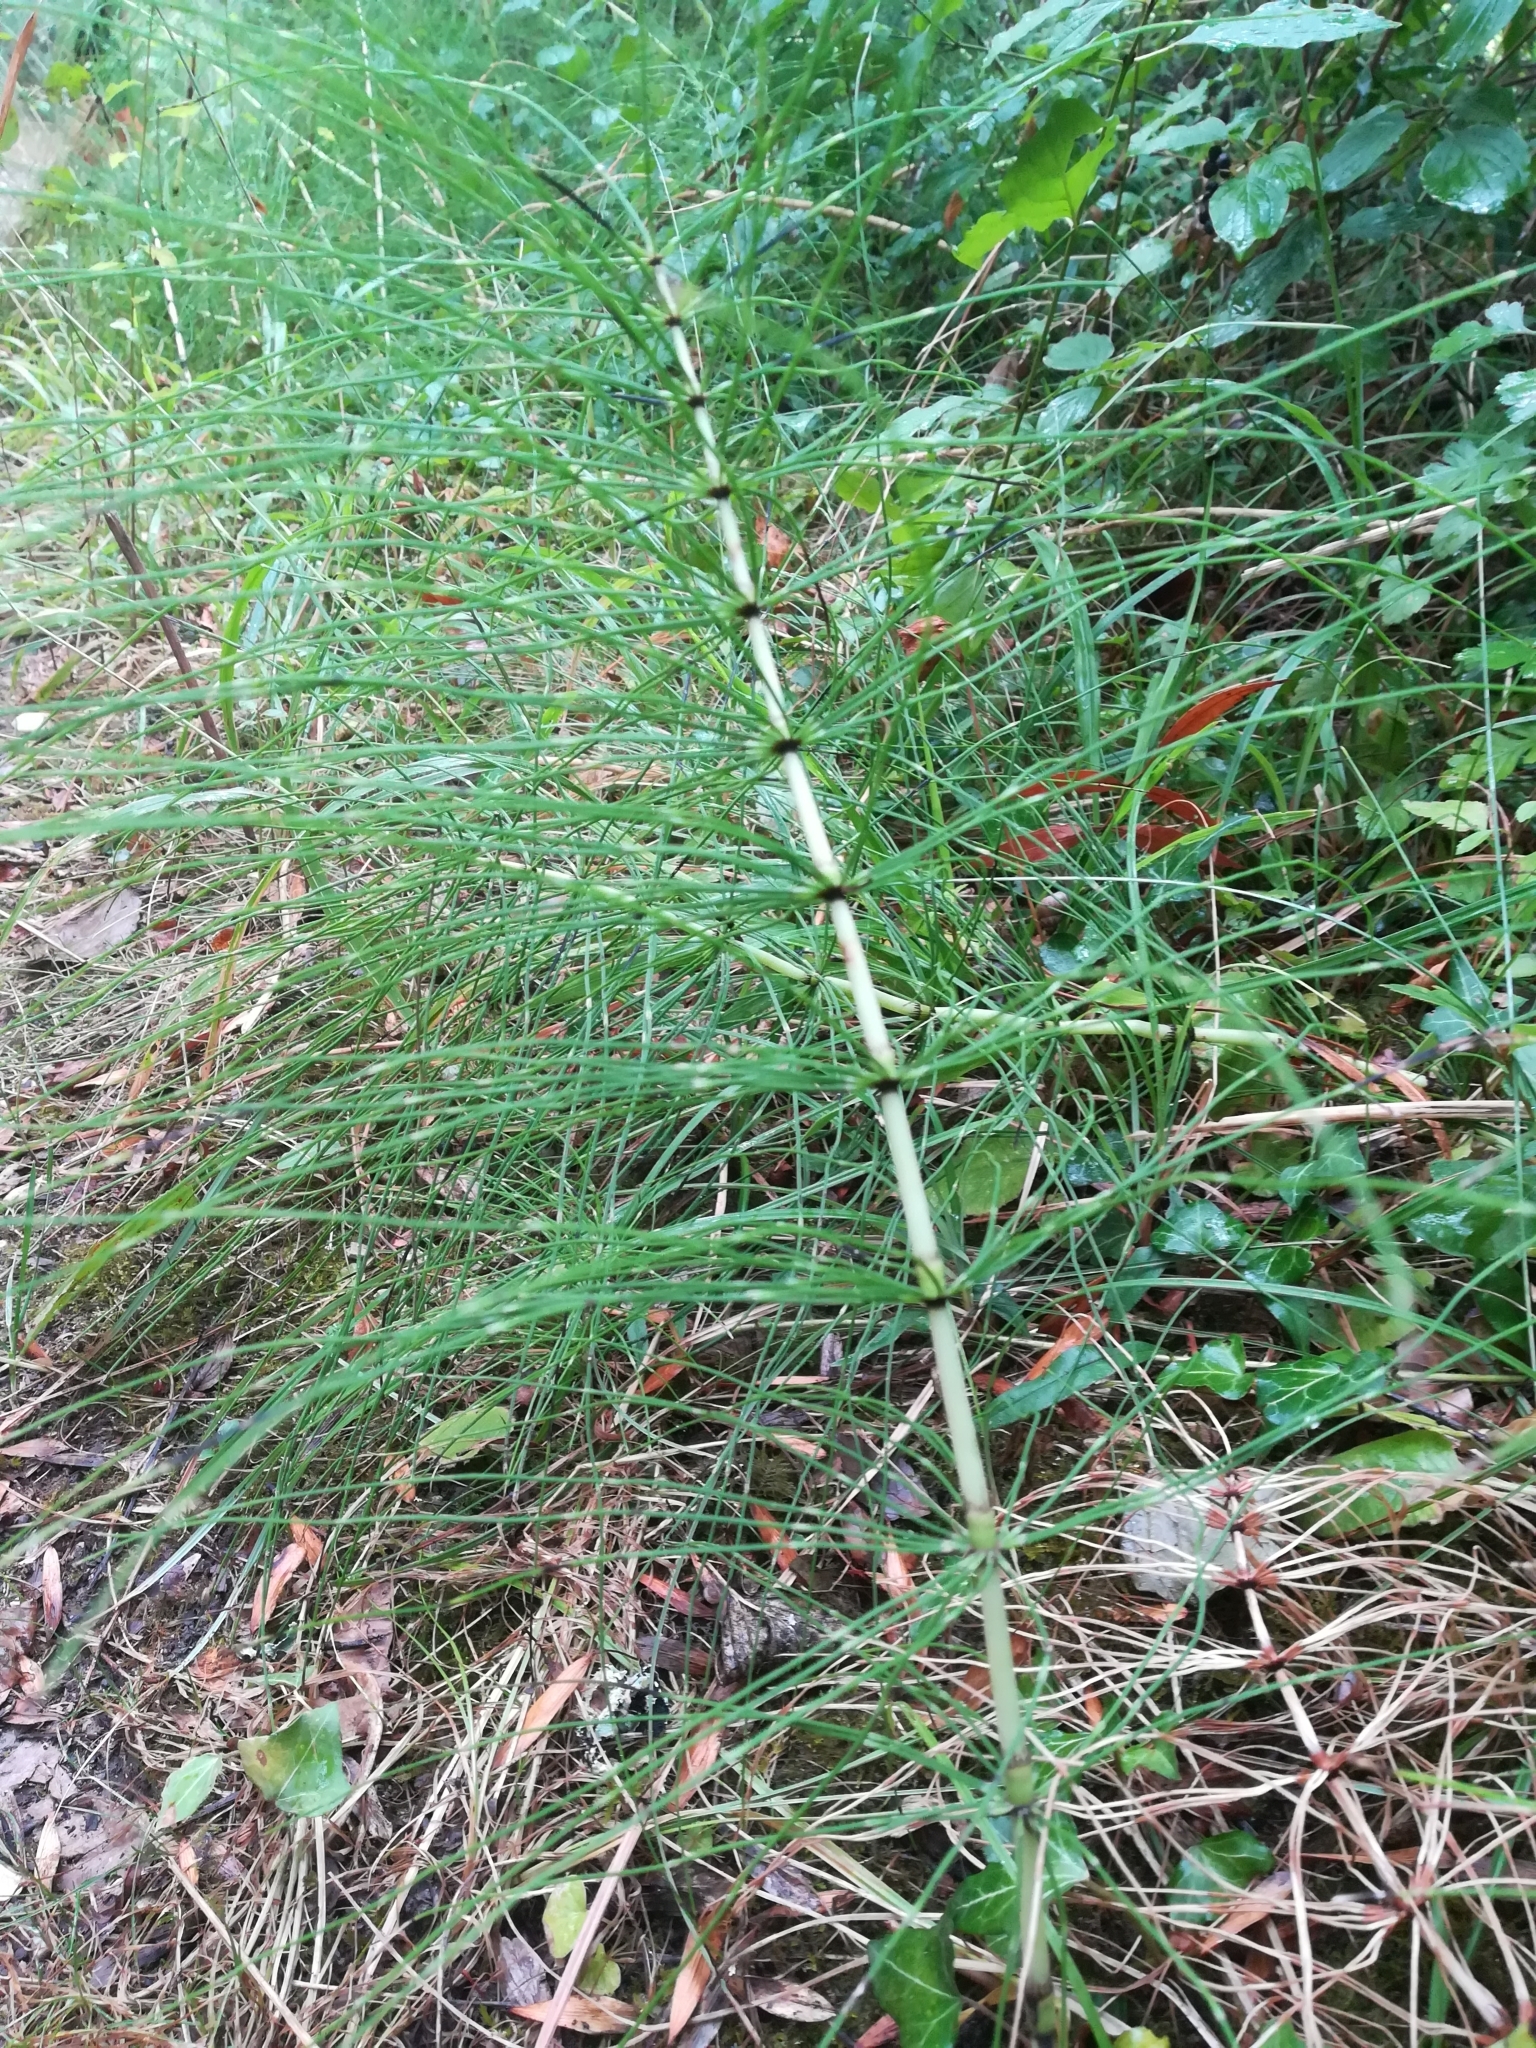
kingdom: Plantae
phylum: Tracheophyta
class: Polypodiopsida
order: Equisetales
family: Equisetaceae
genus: Equisetum
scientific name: Equisetum telmateia
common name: Great horsetail
